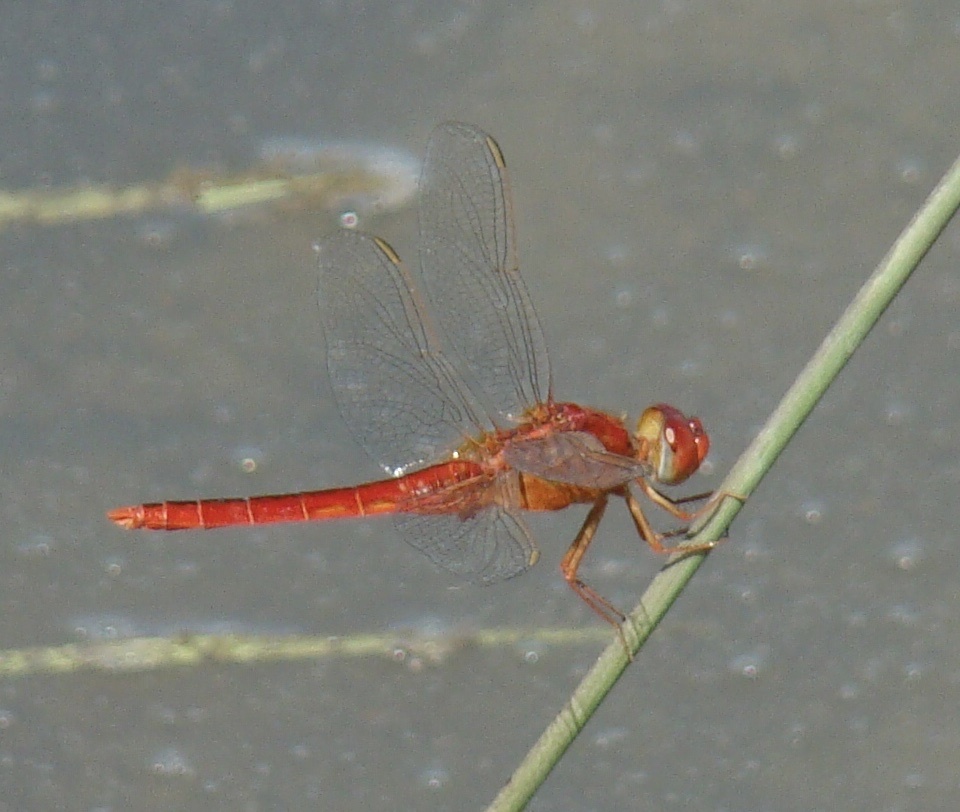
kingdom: Animalia
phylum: Arthropoda
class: Insecta
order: Odonata
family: Libellulidae
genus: Crocothemis
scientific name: Crocothemis servilia
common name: Scarlet skimmer
